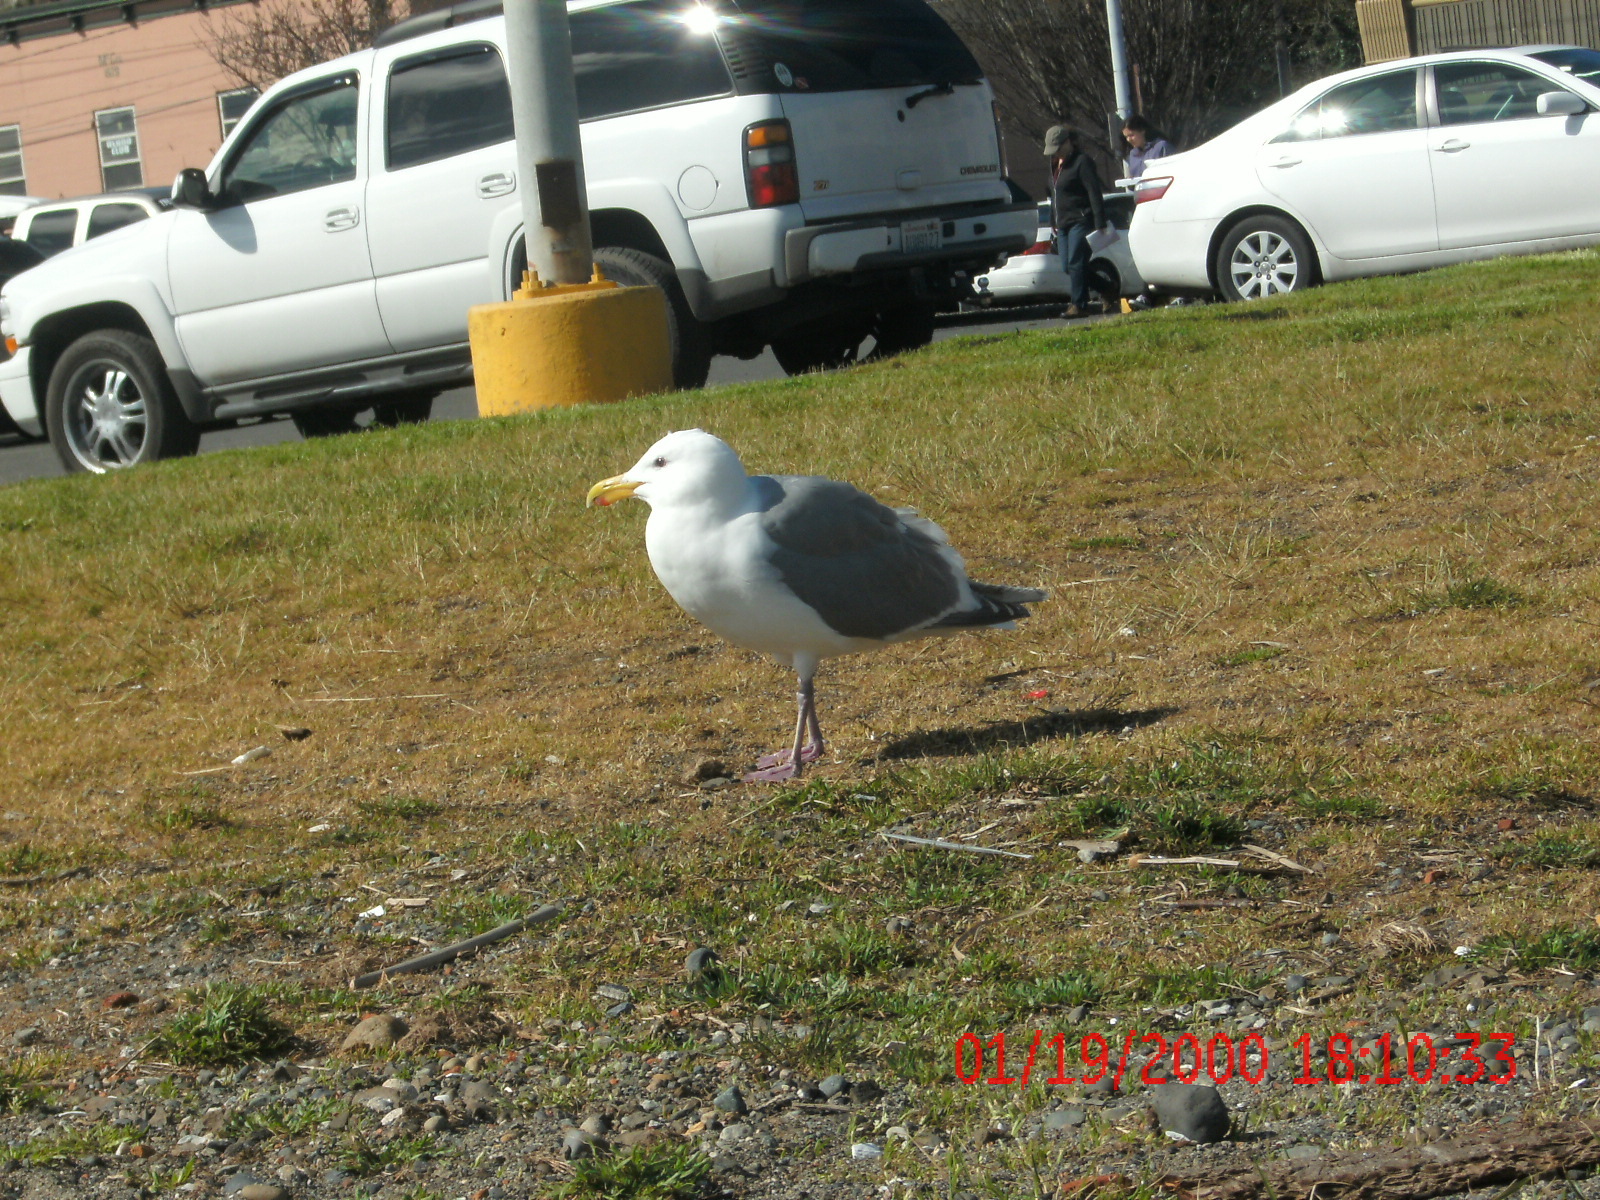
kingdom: Animalia
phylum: Chordata
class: Aves
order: Charadriiformes
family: Laridae
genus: Larus
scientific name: Larus
